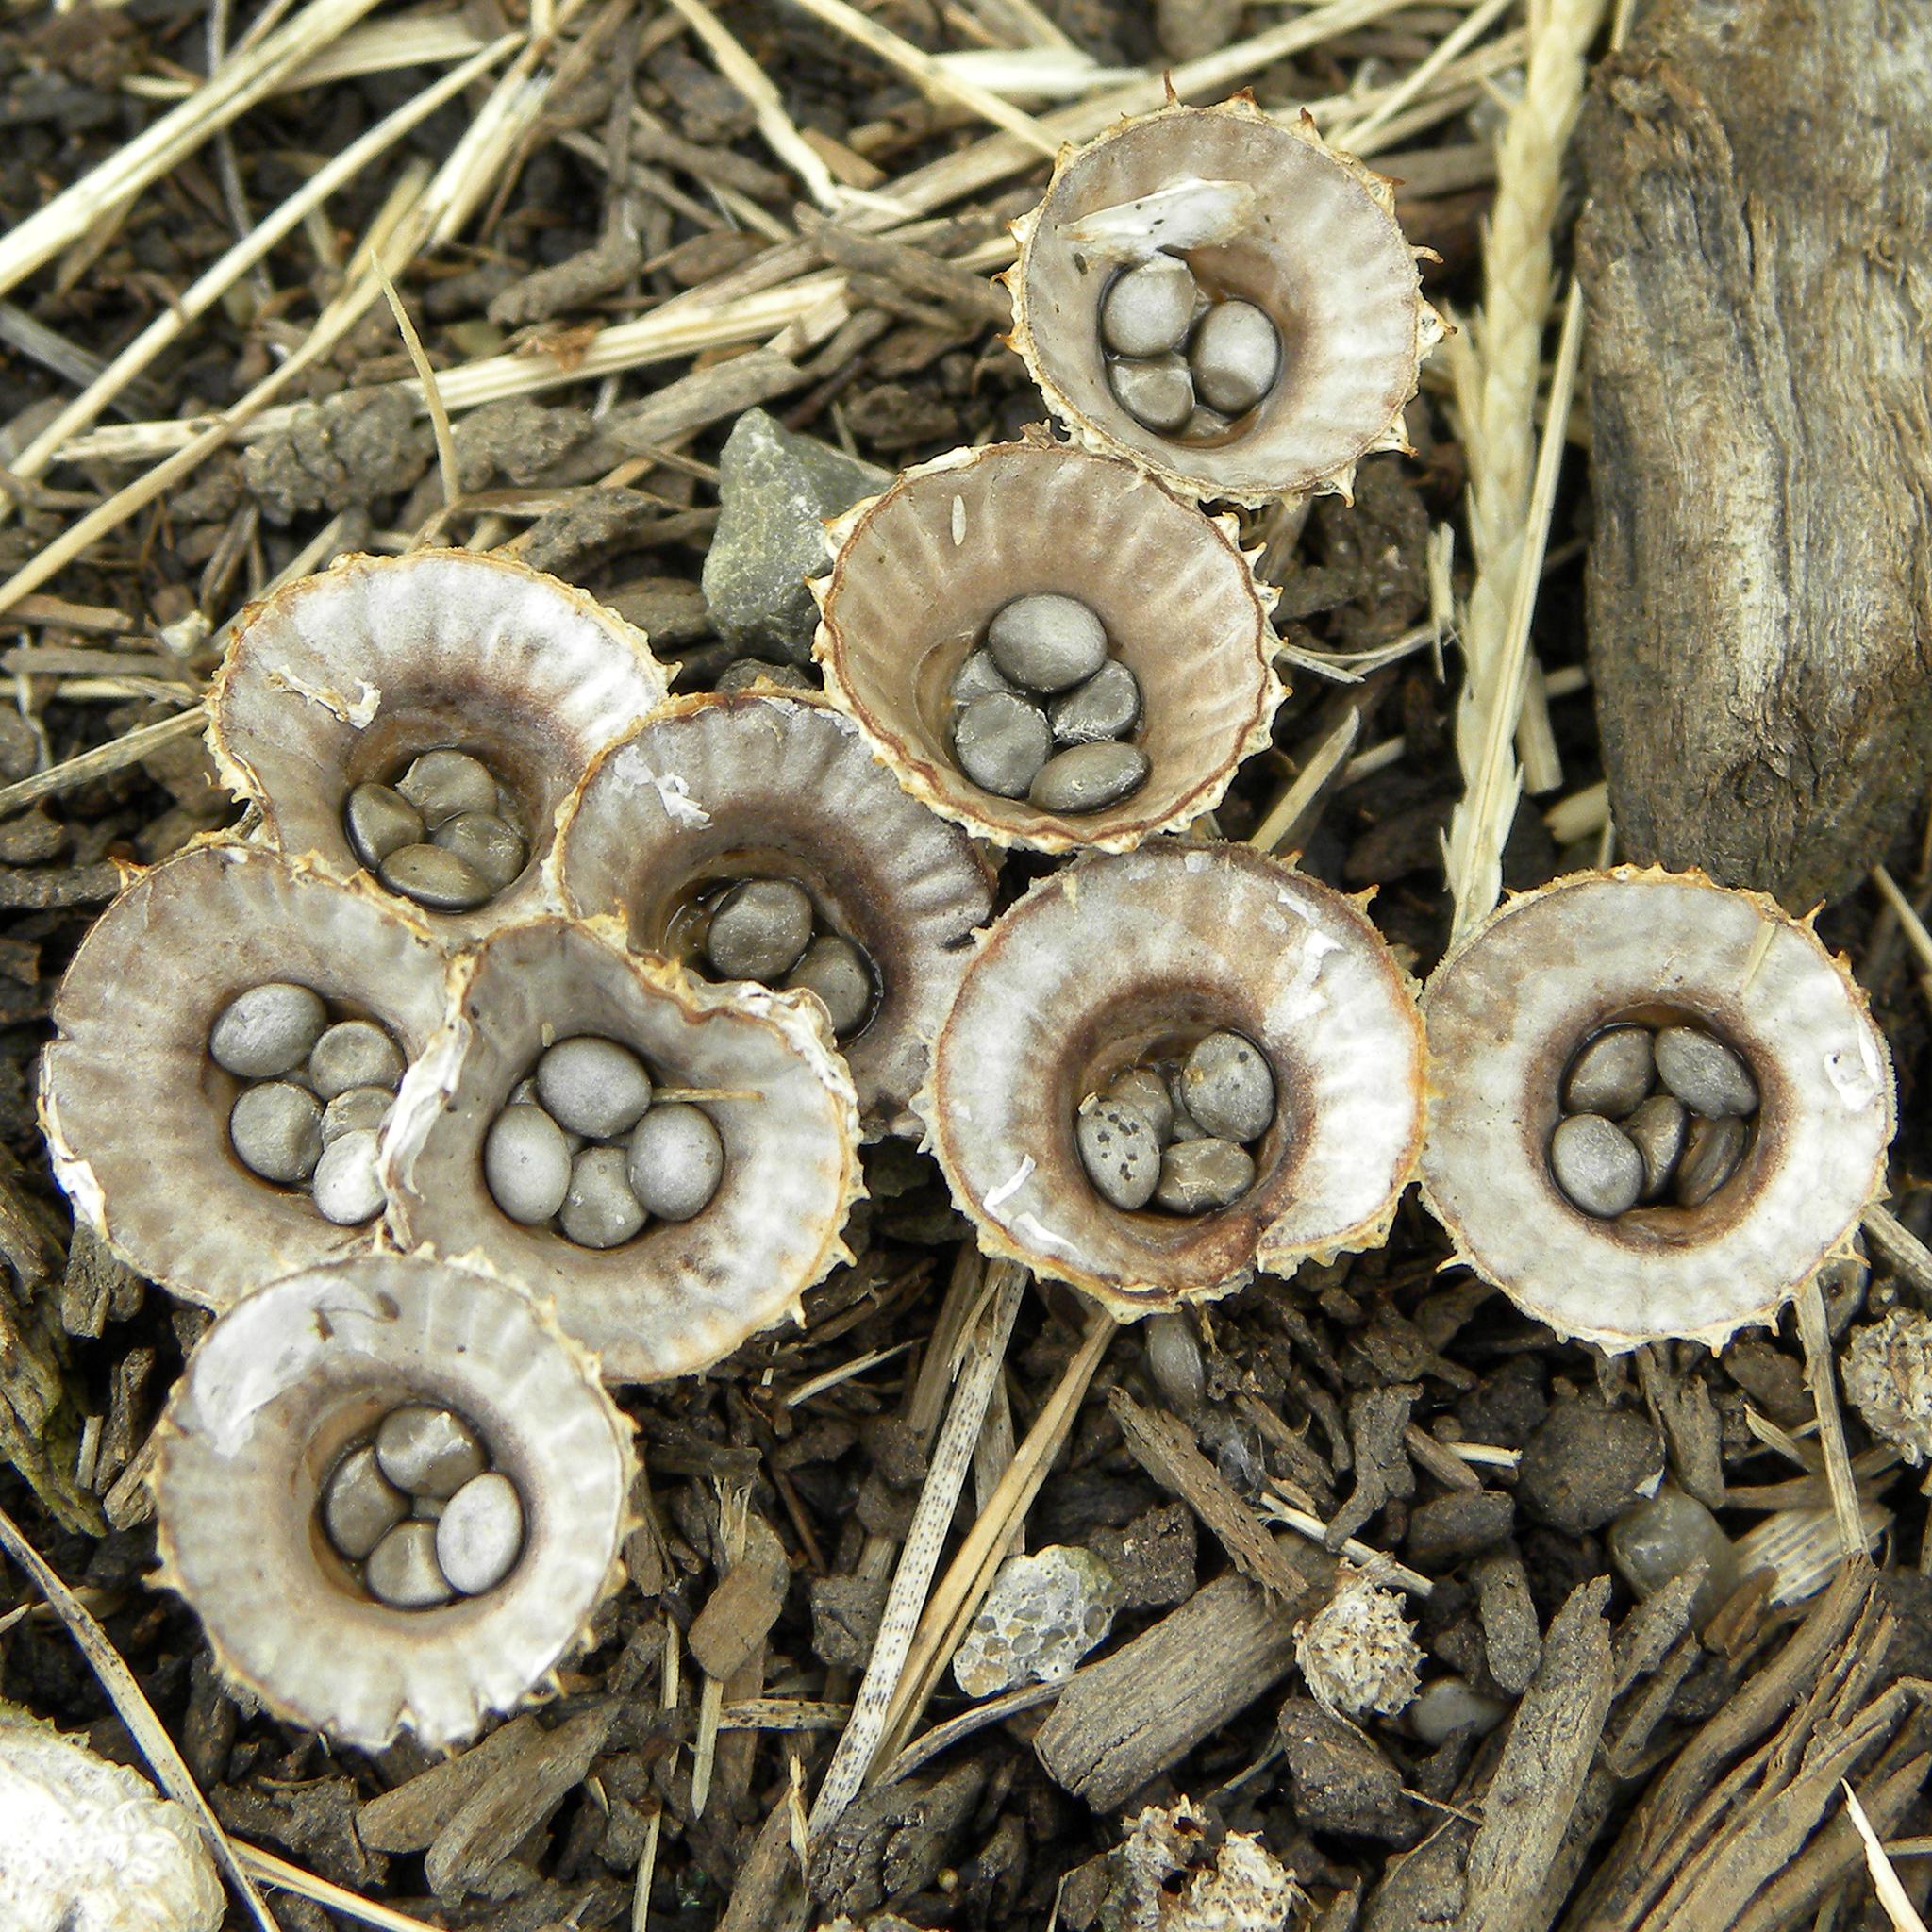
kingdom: Fungi
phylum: Basidiomycota
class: Agaricomycetes
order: Agaricales
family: Agaricaceae
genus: Cyathus
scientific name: Cyathus striatus
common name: Fluted bird's nest
